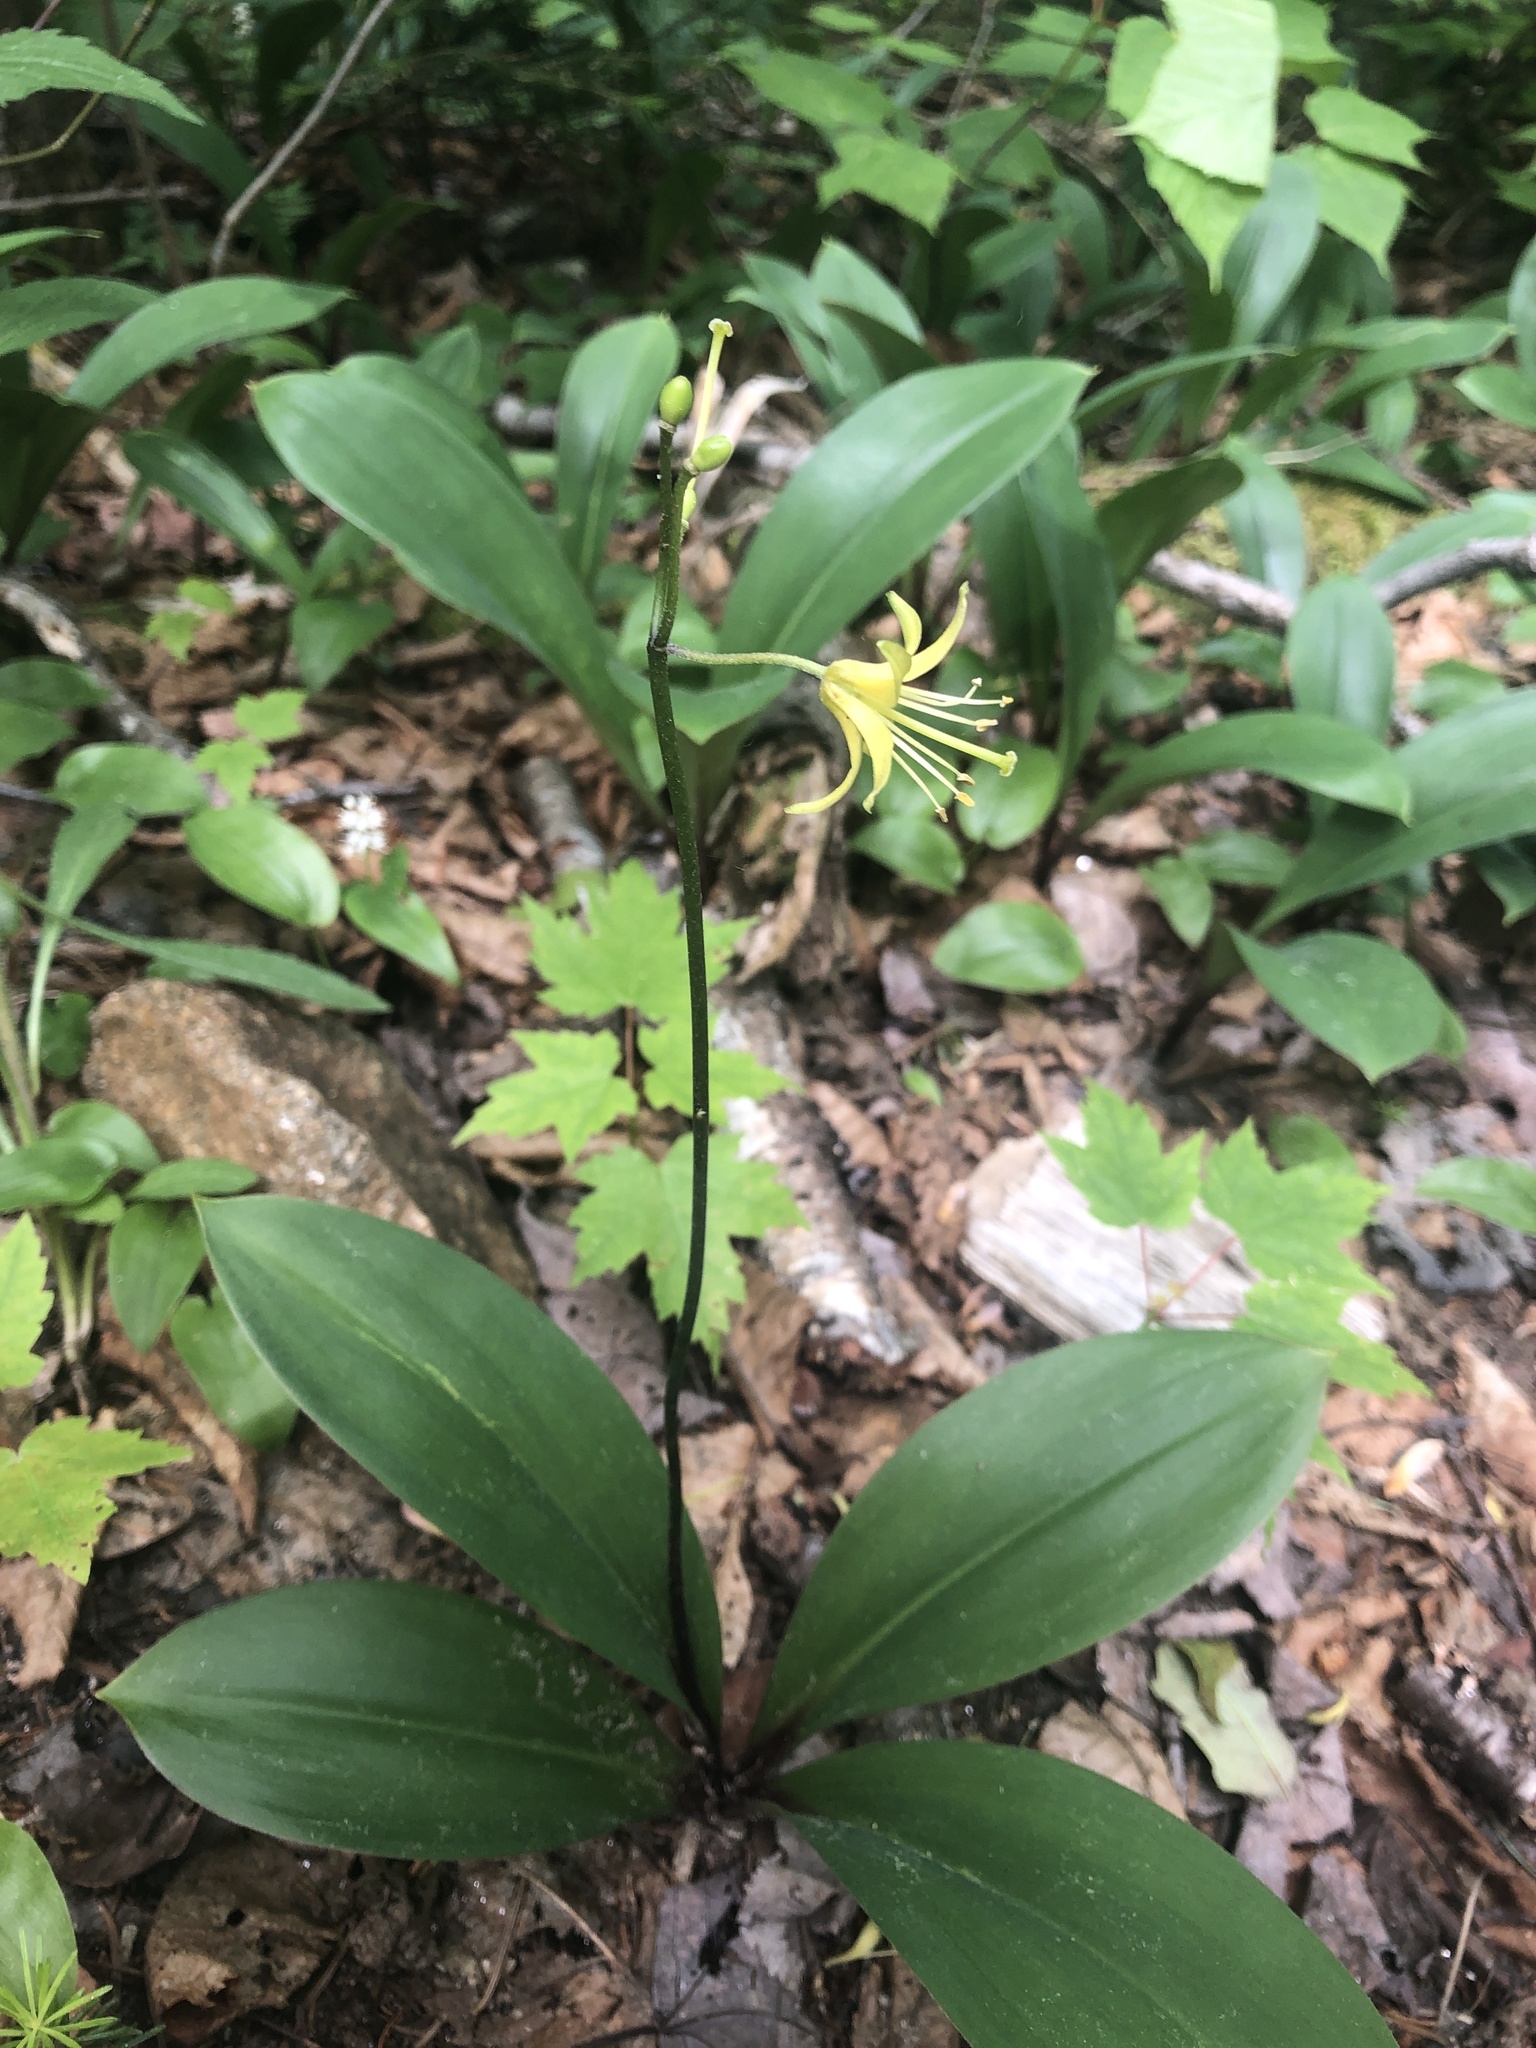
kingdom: Plantae
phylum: Tracheophyta
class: Liliopsida
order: Liliales
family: Liliaceae
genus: Clintonia
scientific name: Clintonia borealis
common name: Yellow clintonia
